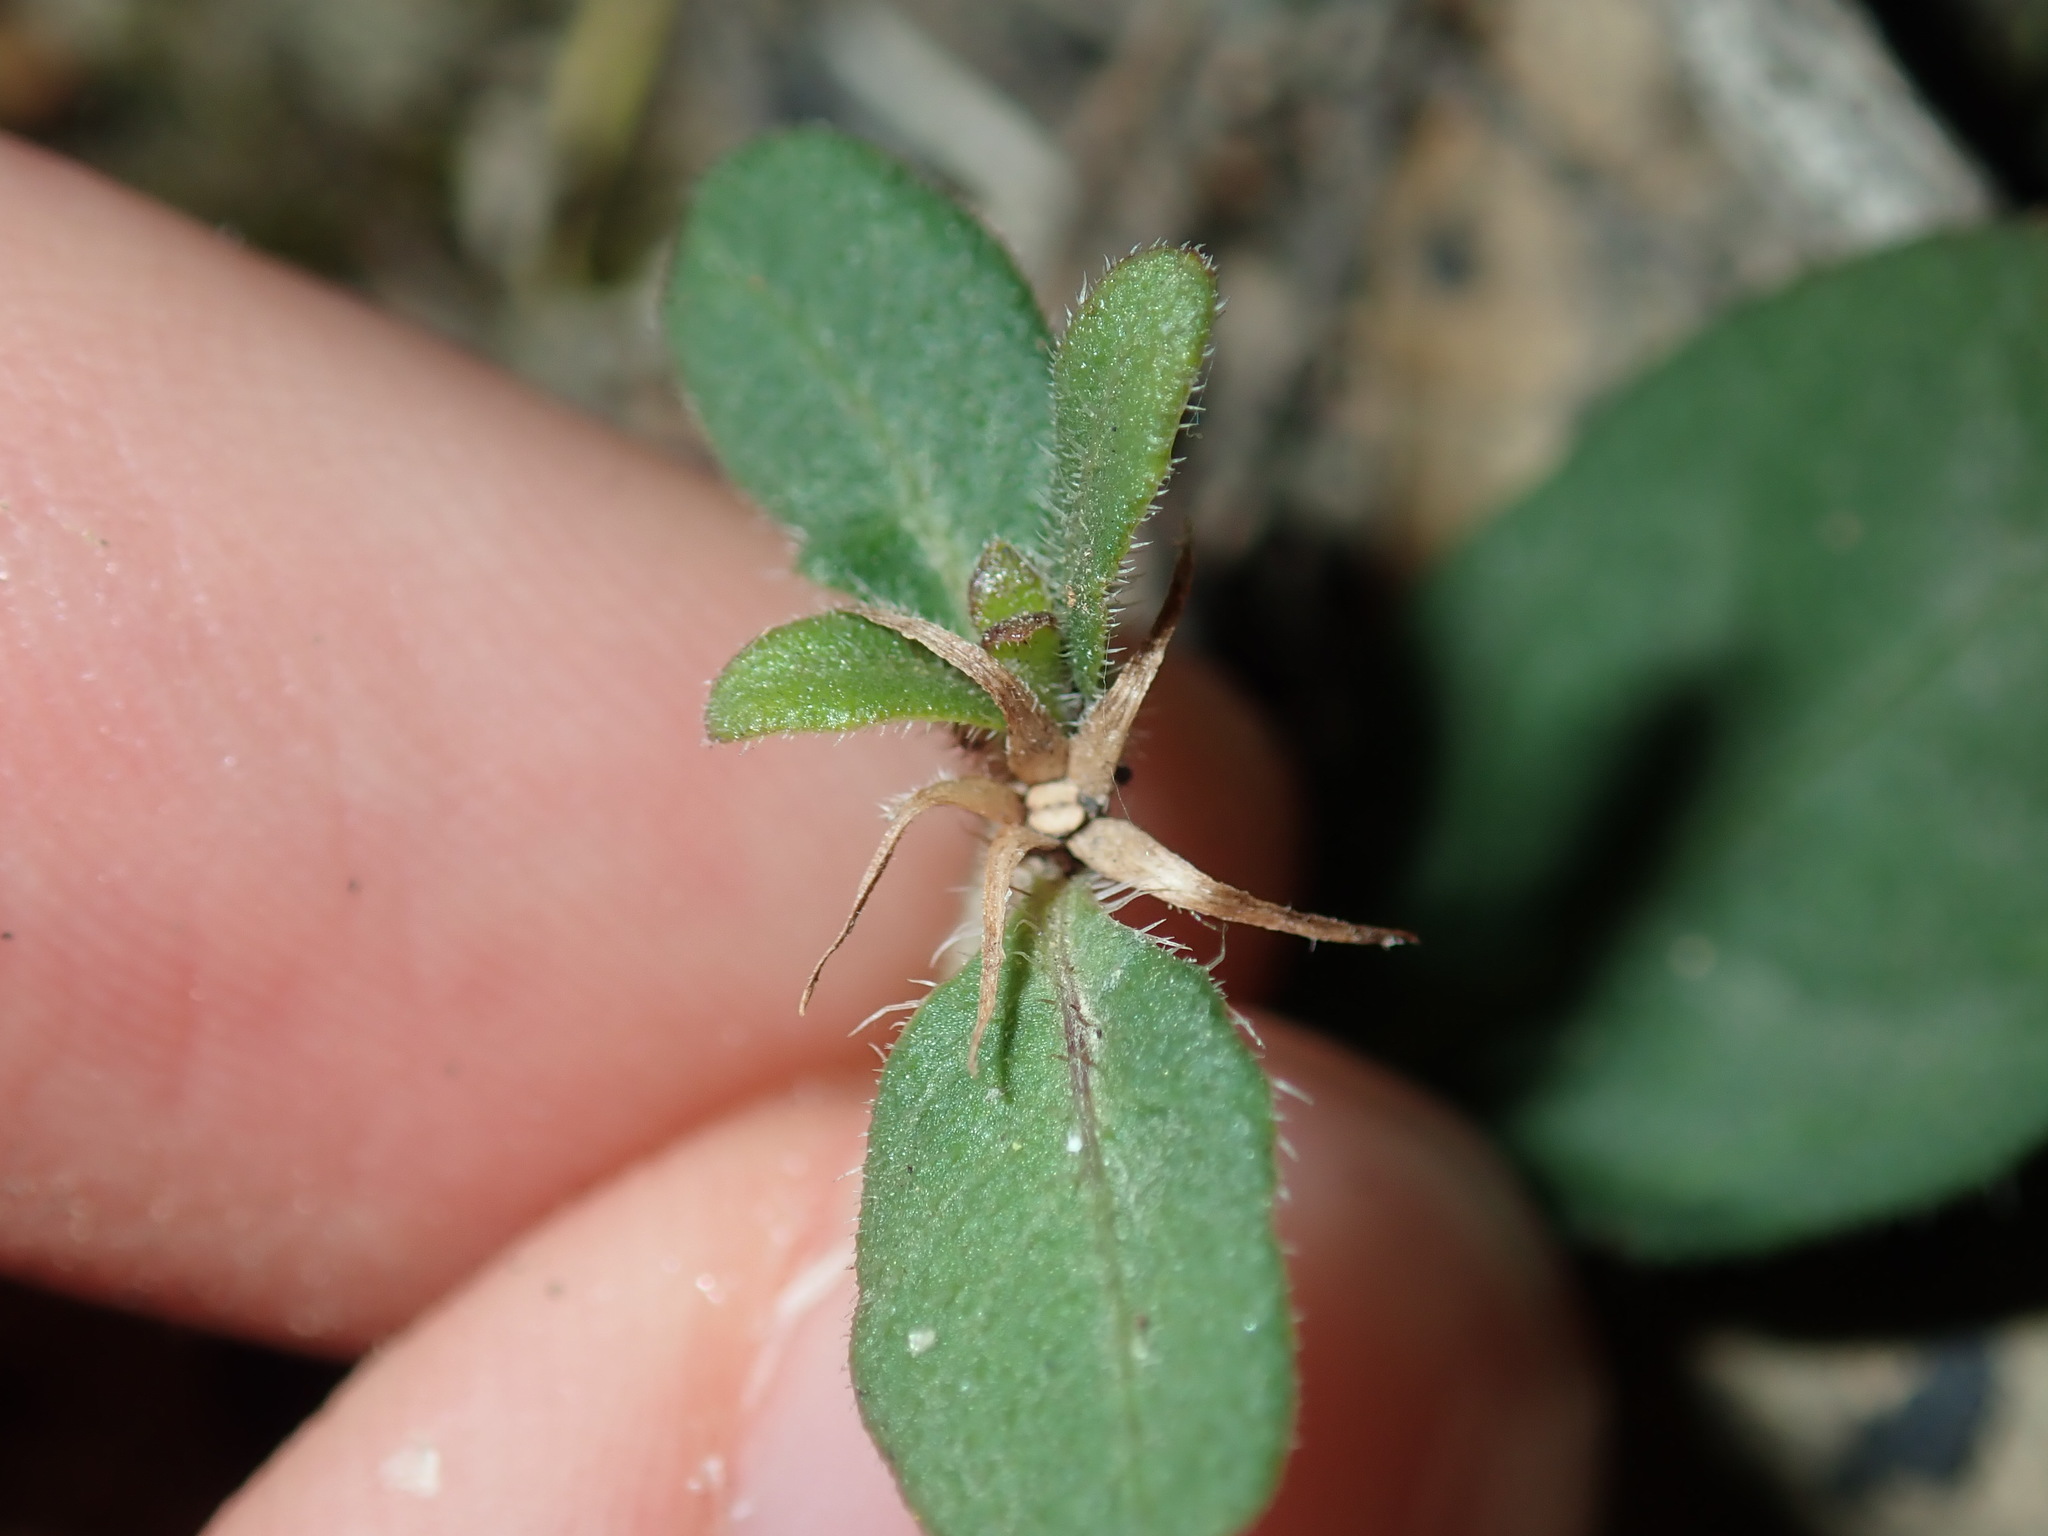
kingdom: Plantae
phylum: Tracheophyta
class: Magnoliopsida
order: Lamiales
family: Acanthaceae
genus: Brunoniella
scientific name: Brunoniella australis
